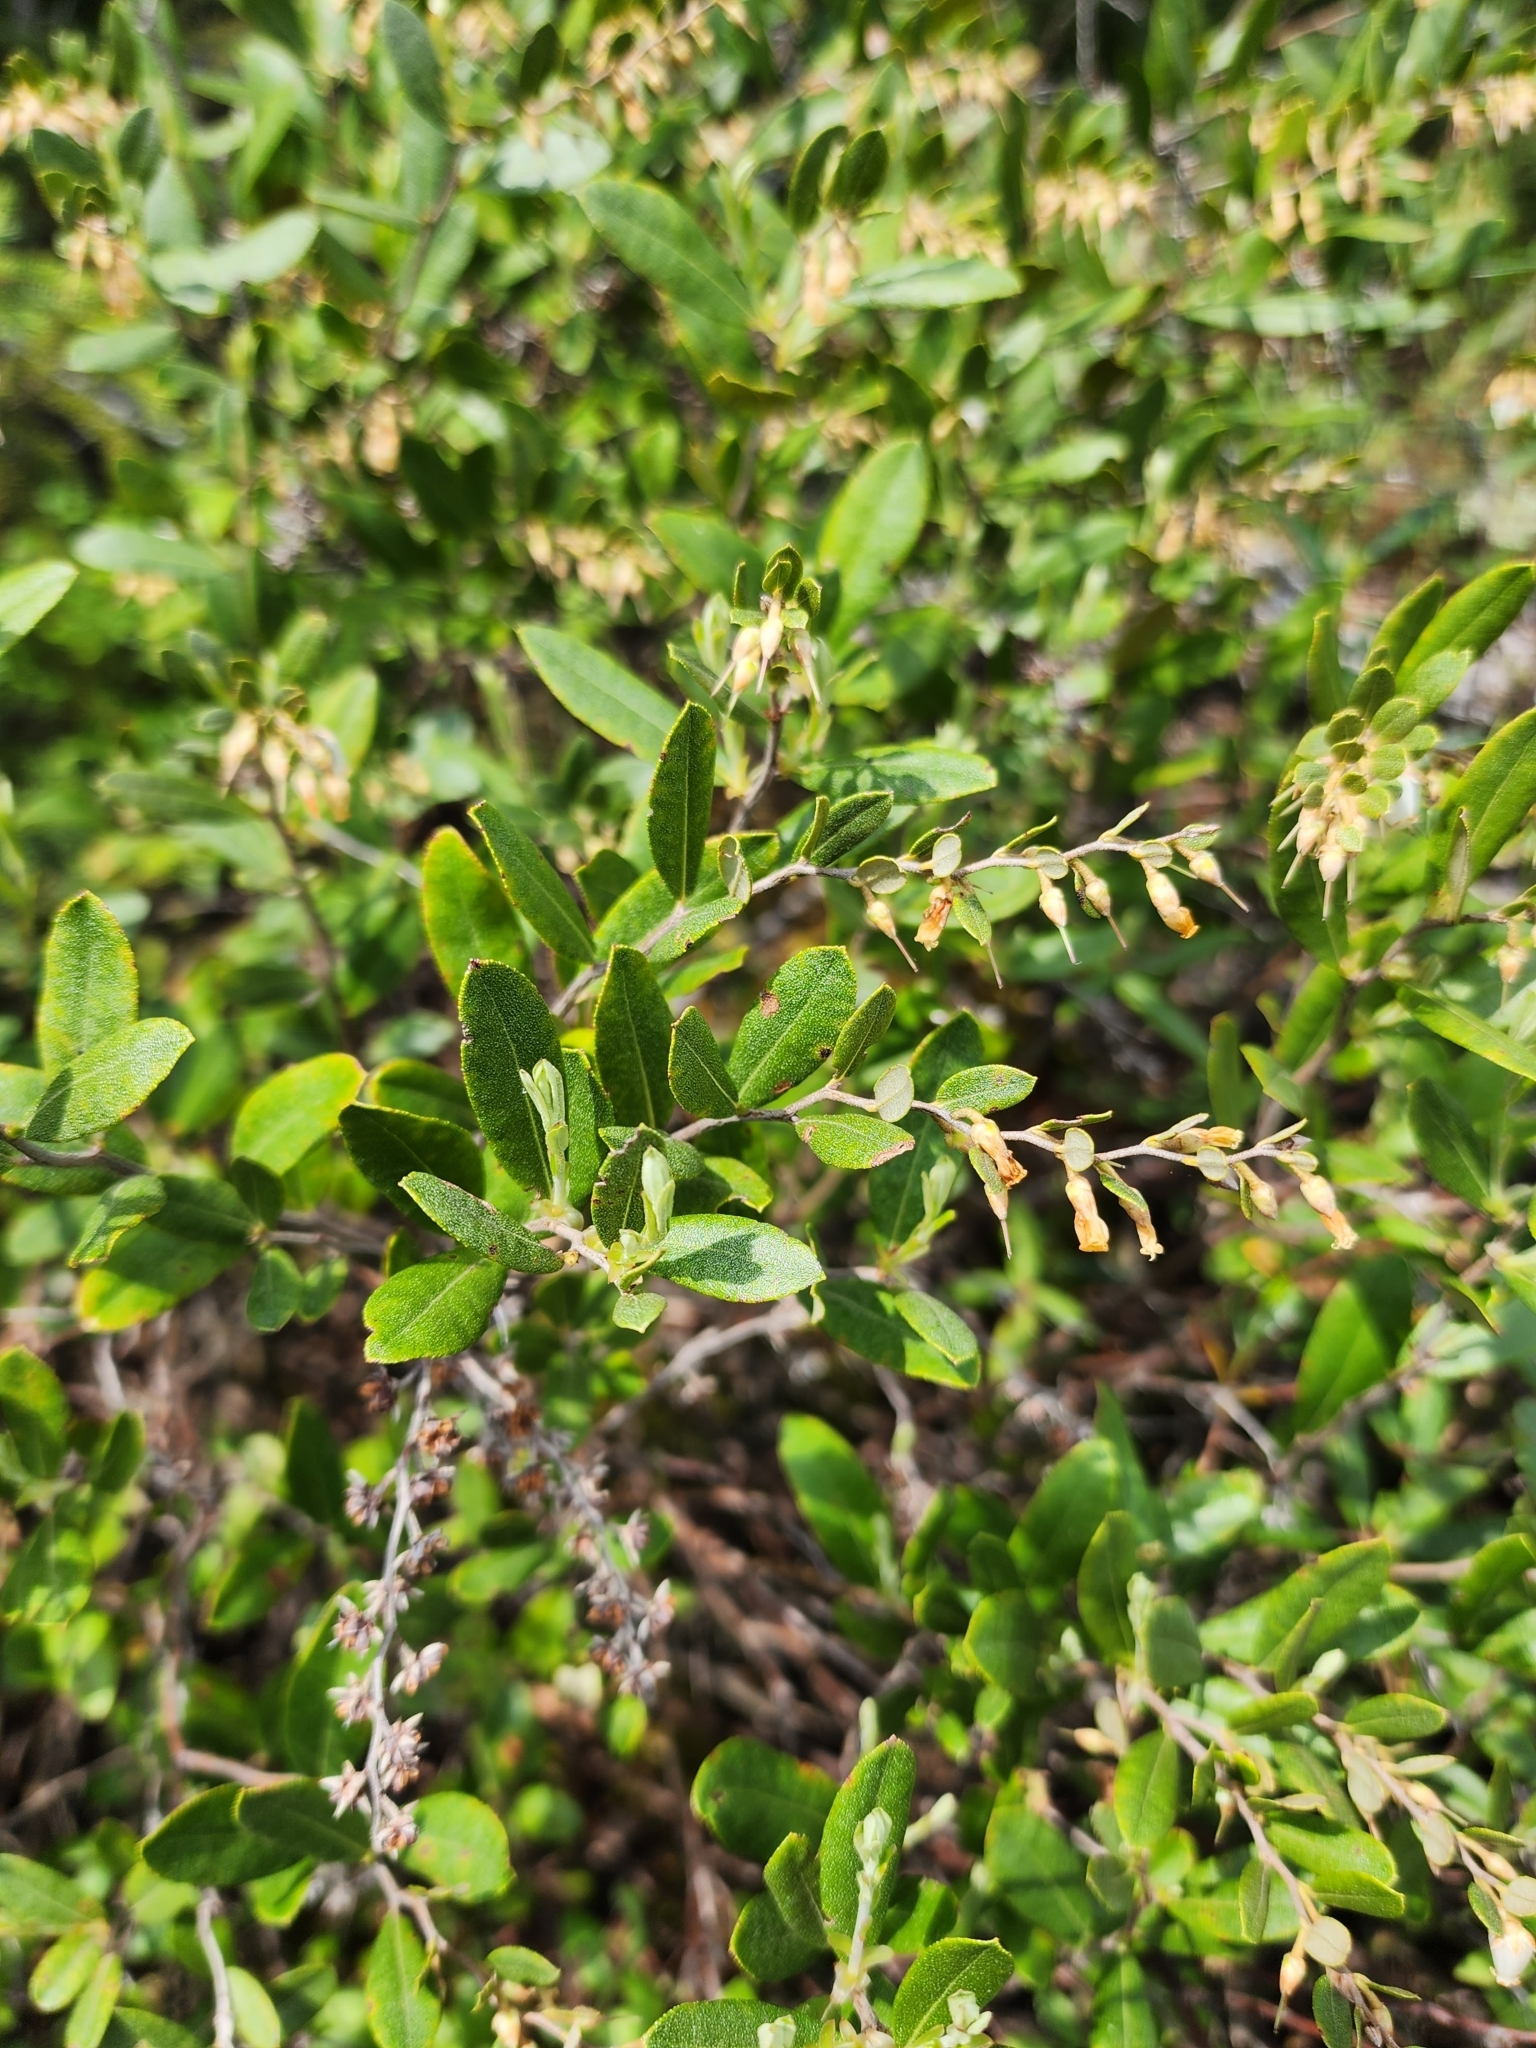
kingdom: Plantae
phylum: Tracheophyta
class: Magnoliopsida
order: Ericales
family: Ericaceae
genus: Chamaedaphne
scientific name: Chamaedaphne calyculata
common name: Leatherleaf
